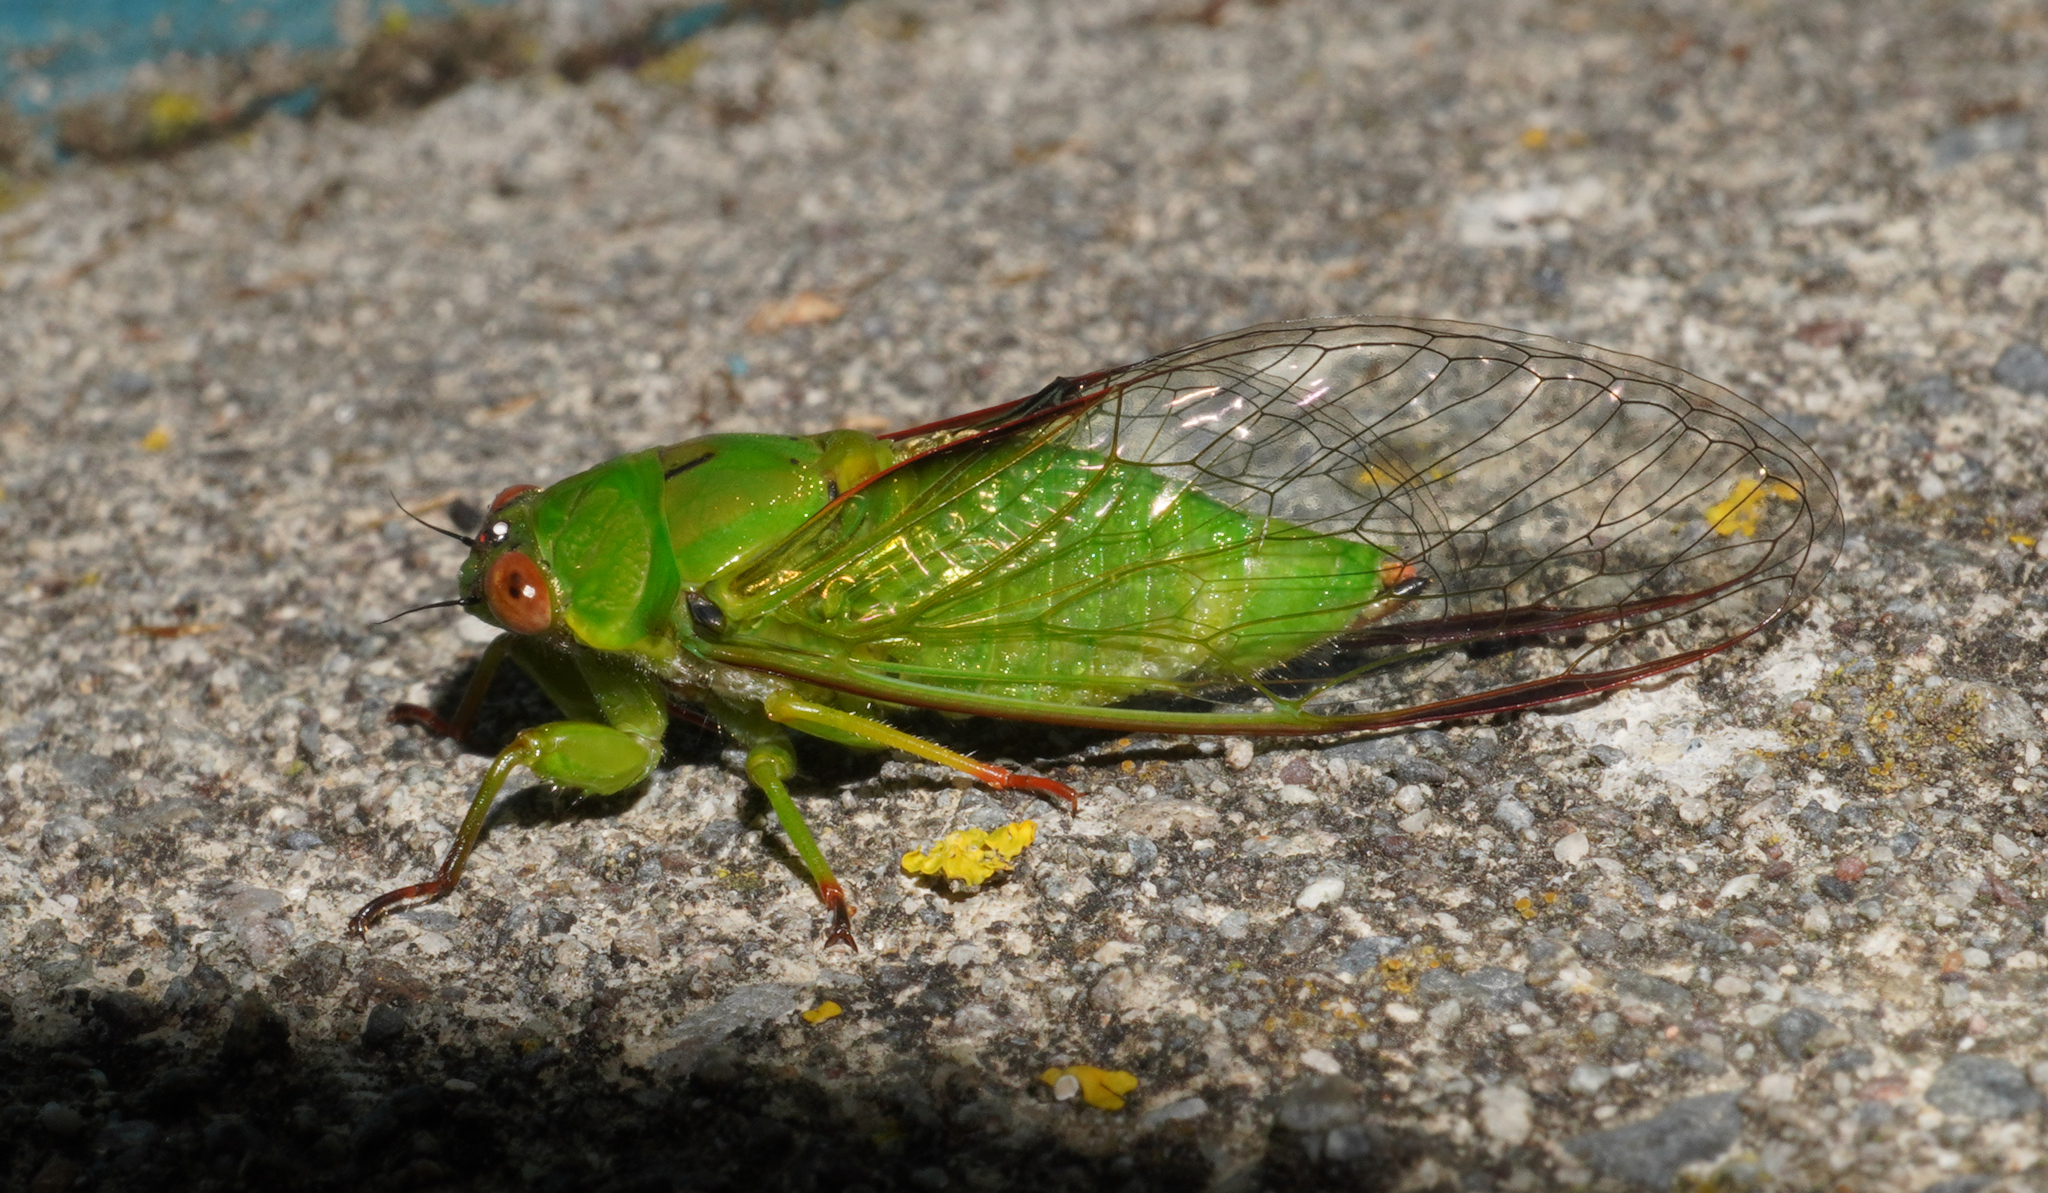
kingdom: Animalia
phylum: Arthropoda
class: Insecta
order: Hemiptera
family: Cicadidae
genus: Kikihia
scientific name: Kikihia ochrina
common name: April green cicada
